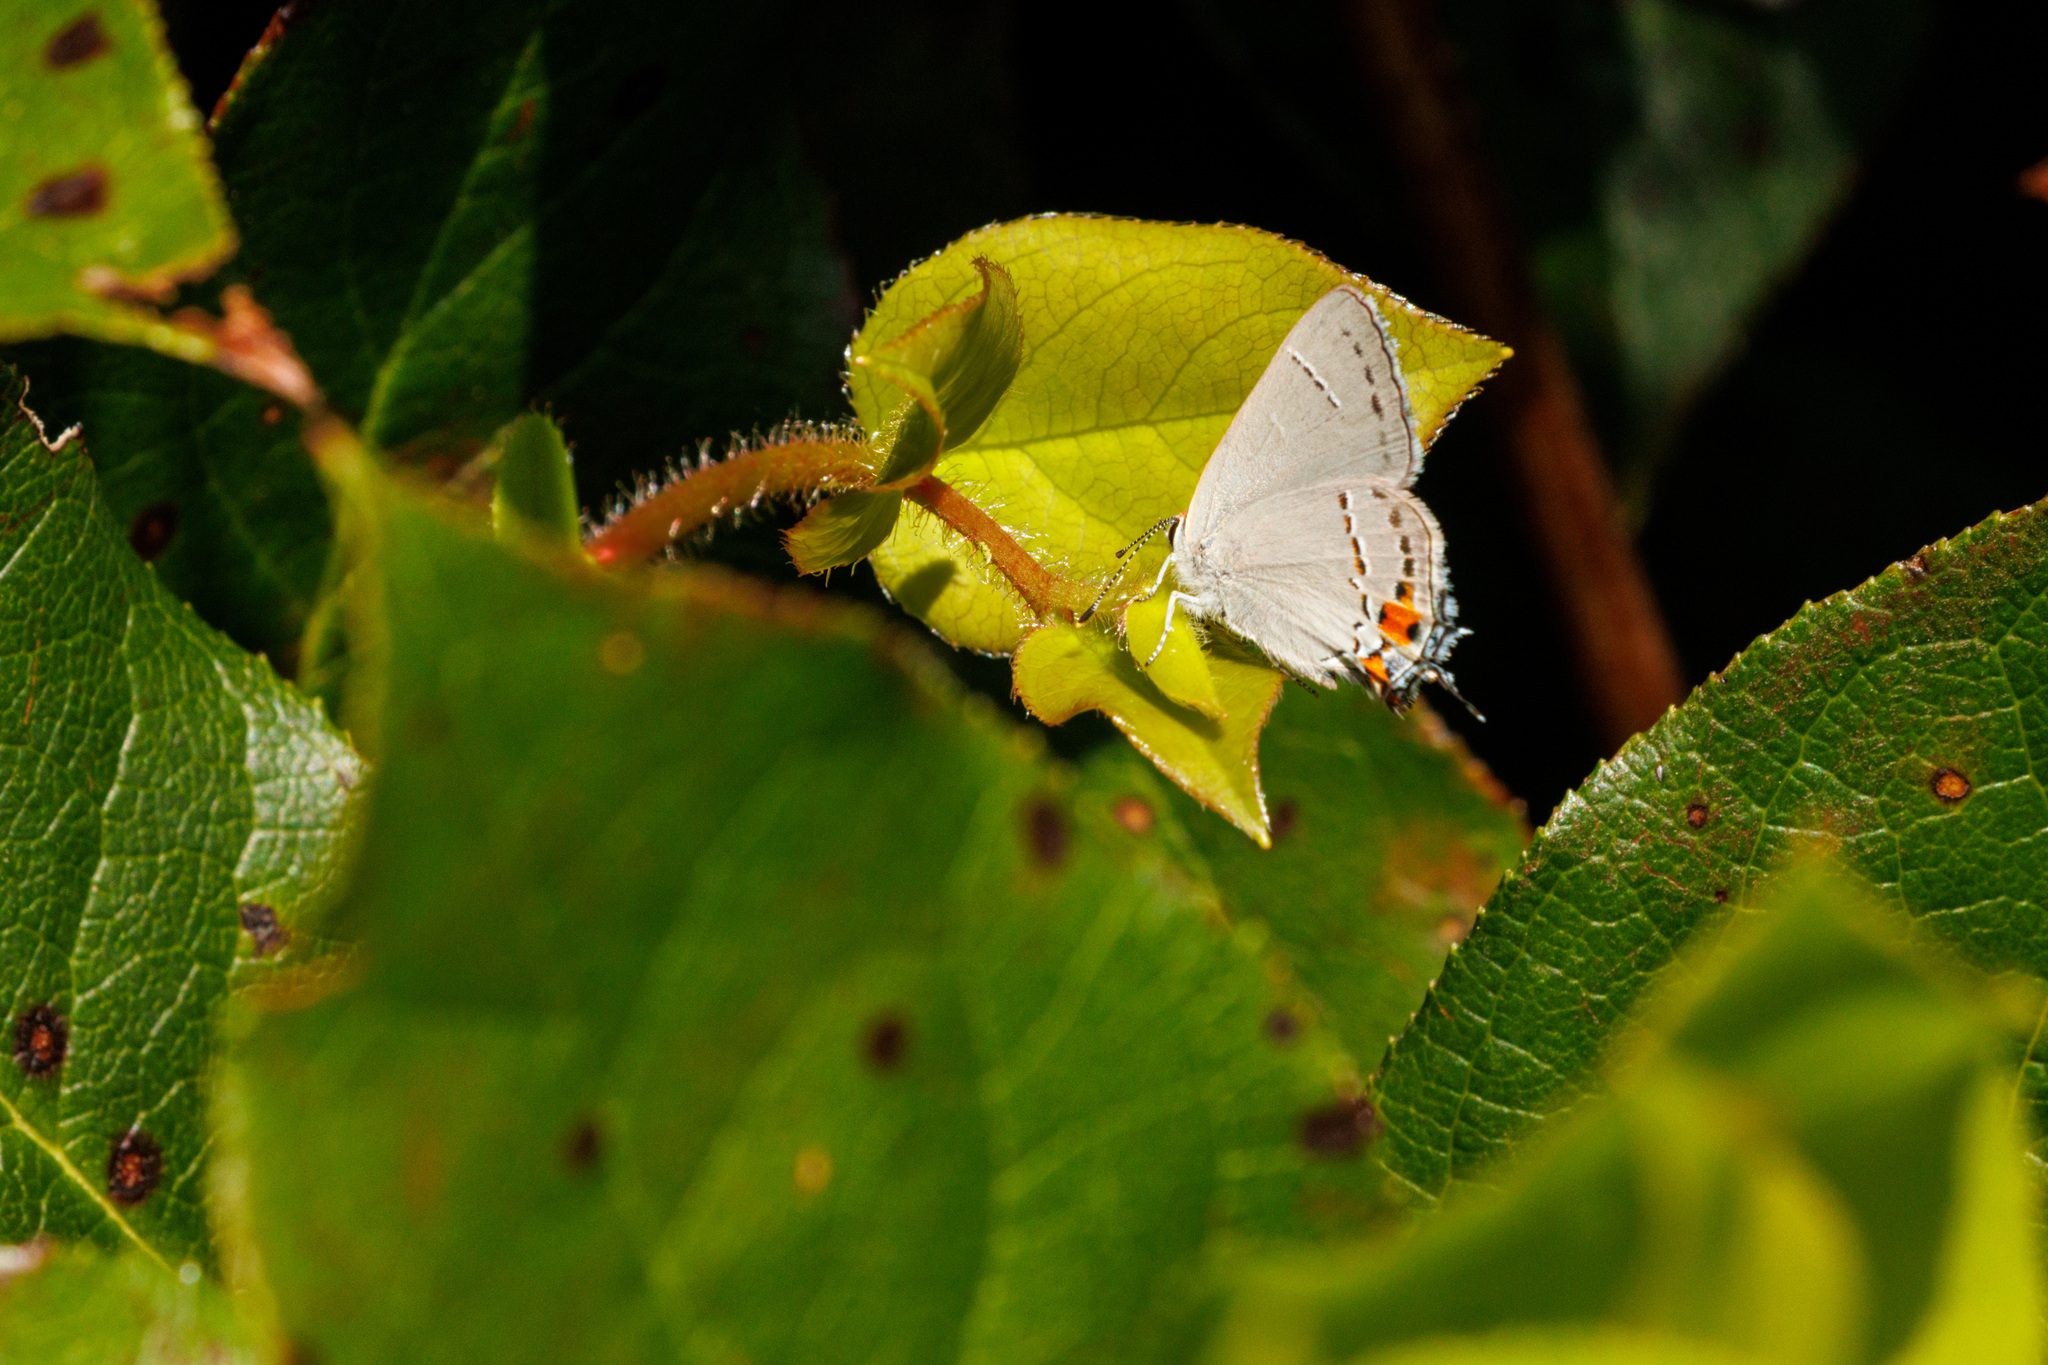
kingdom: Animalia
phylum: Arthropoda
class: Insecta
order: Lepidoptera
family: Lycaenidae
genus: Strymon
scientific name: Strymon melinus
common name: Gray hairstreak
